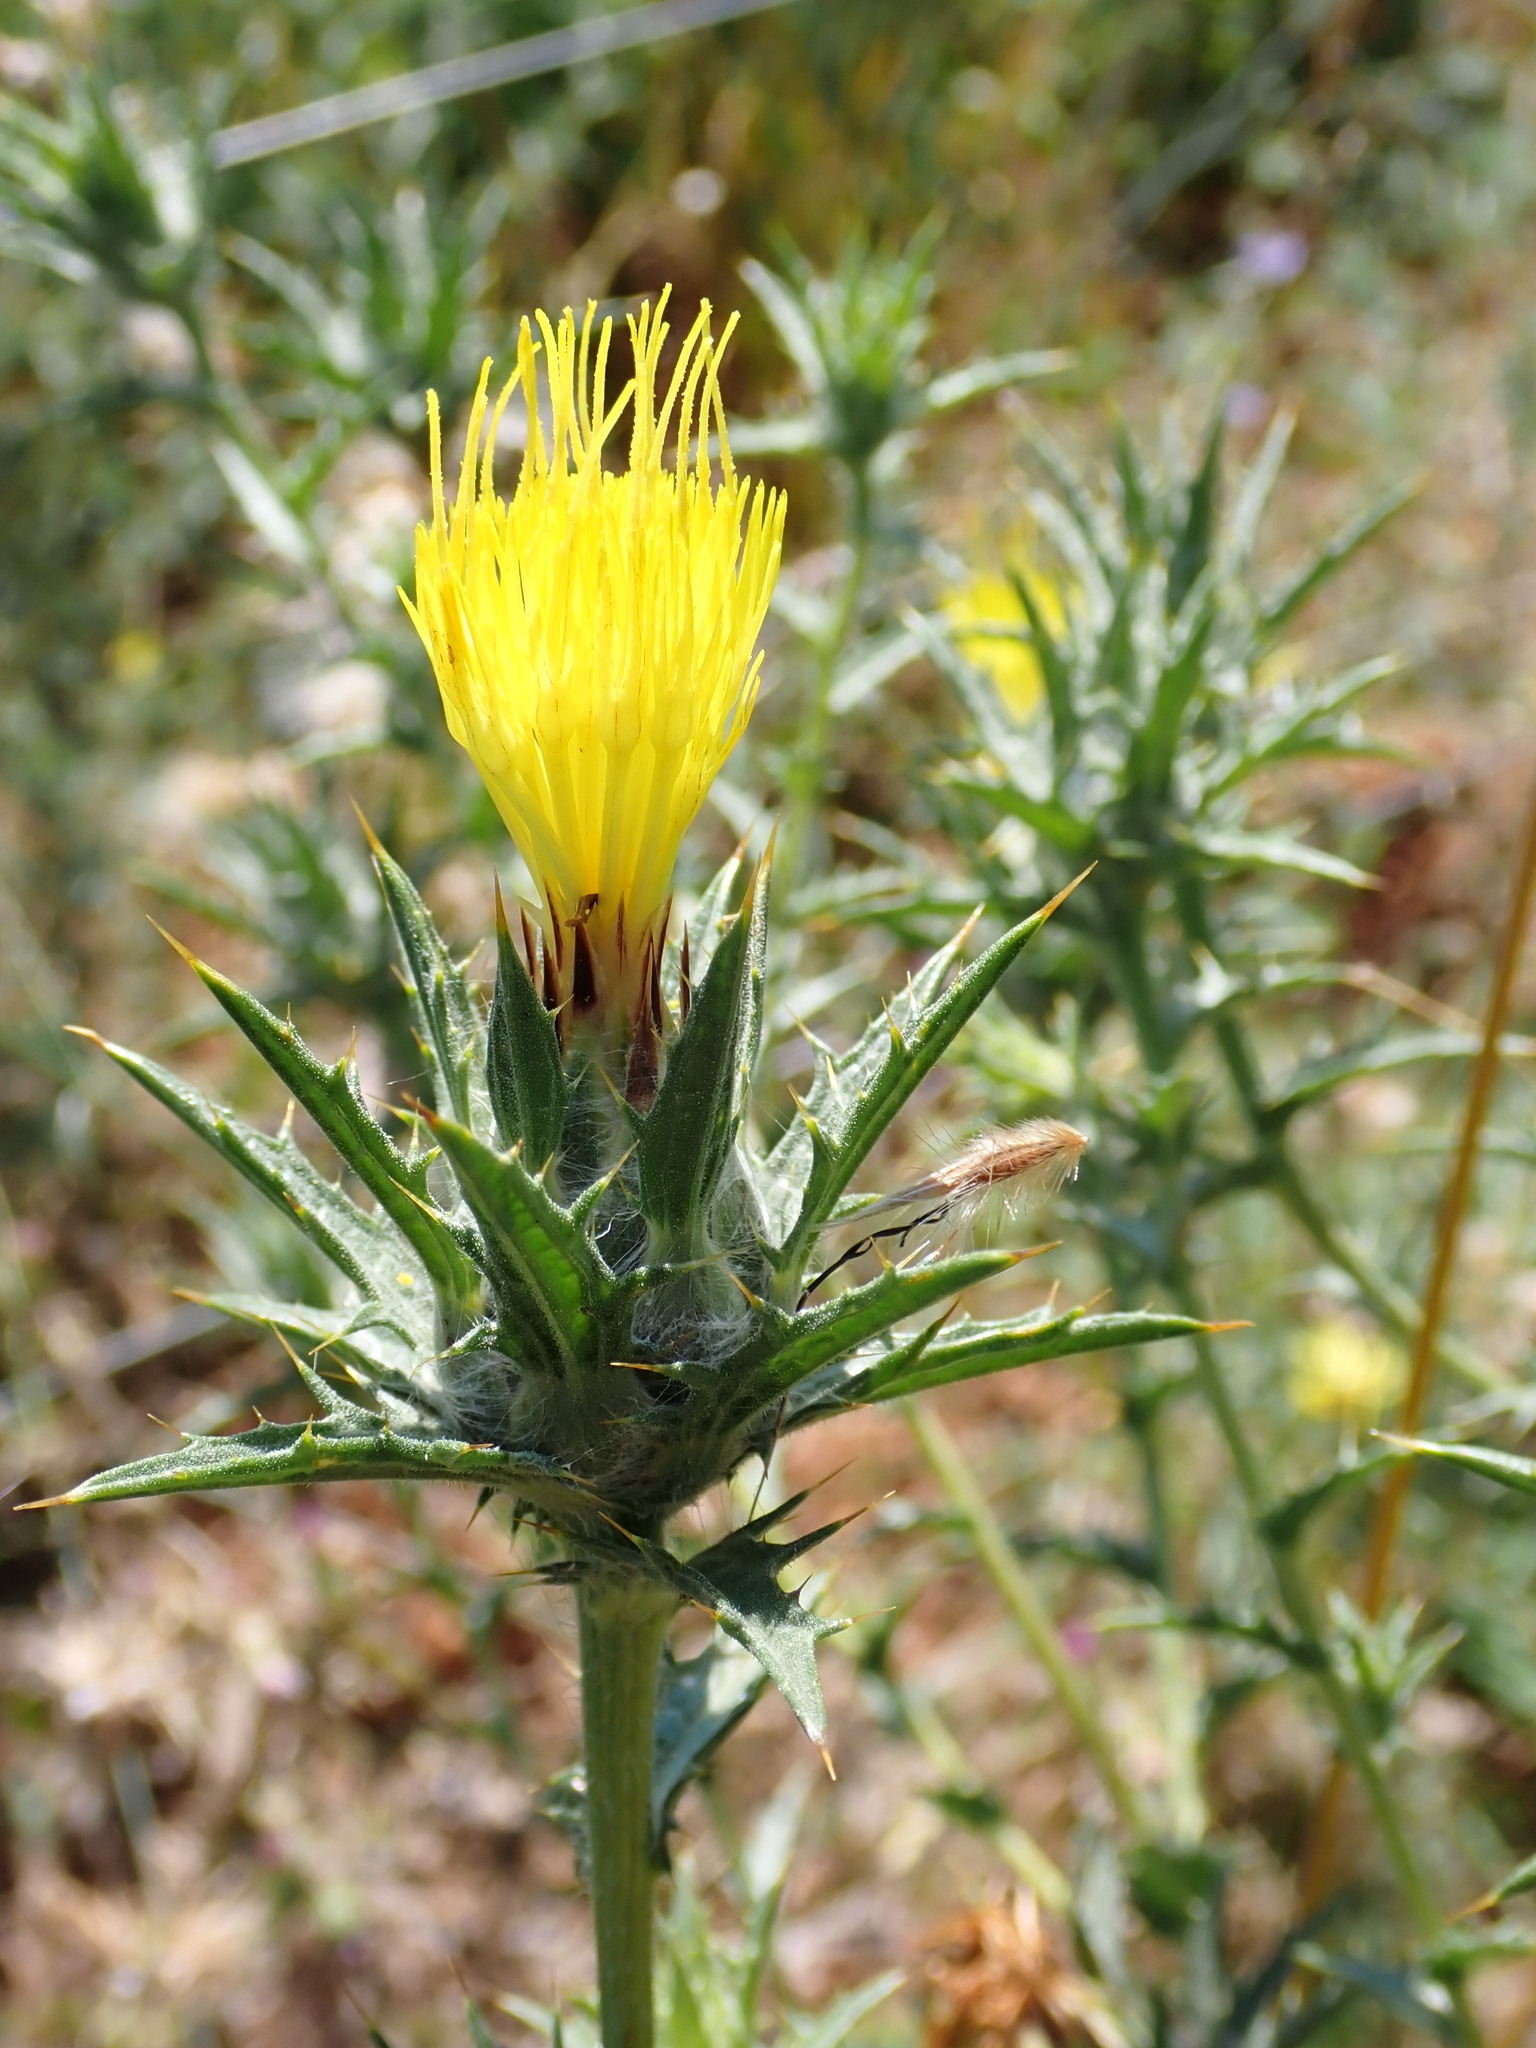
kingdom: Plantae
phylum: Tracheophyta
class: Magnoliopsida
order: Asterales
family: Asteraceae
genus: Carthamus
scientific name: Carthamus lanatus
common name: Downy safflower
